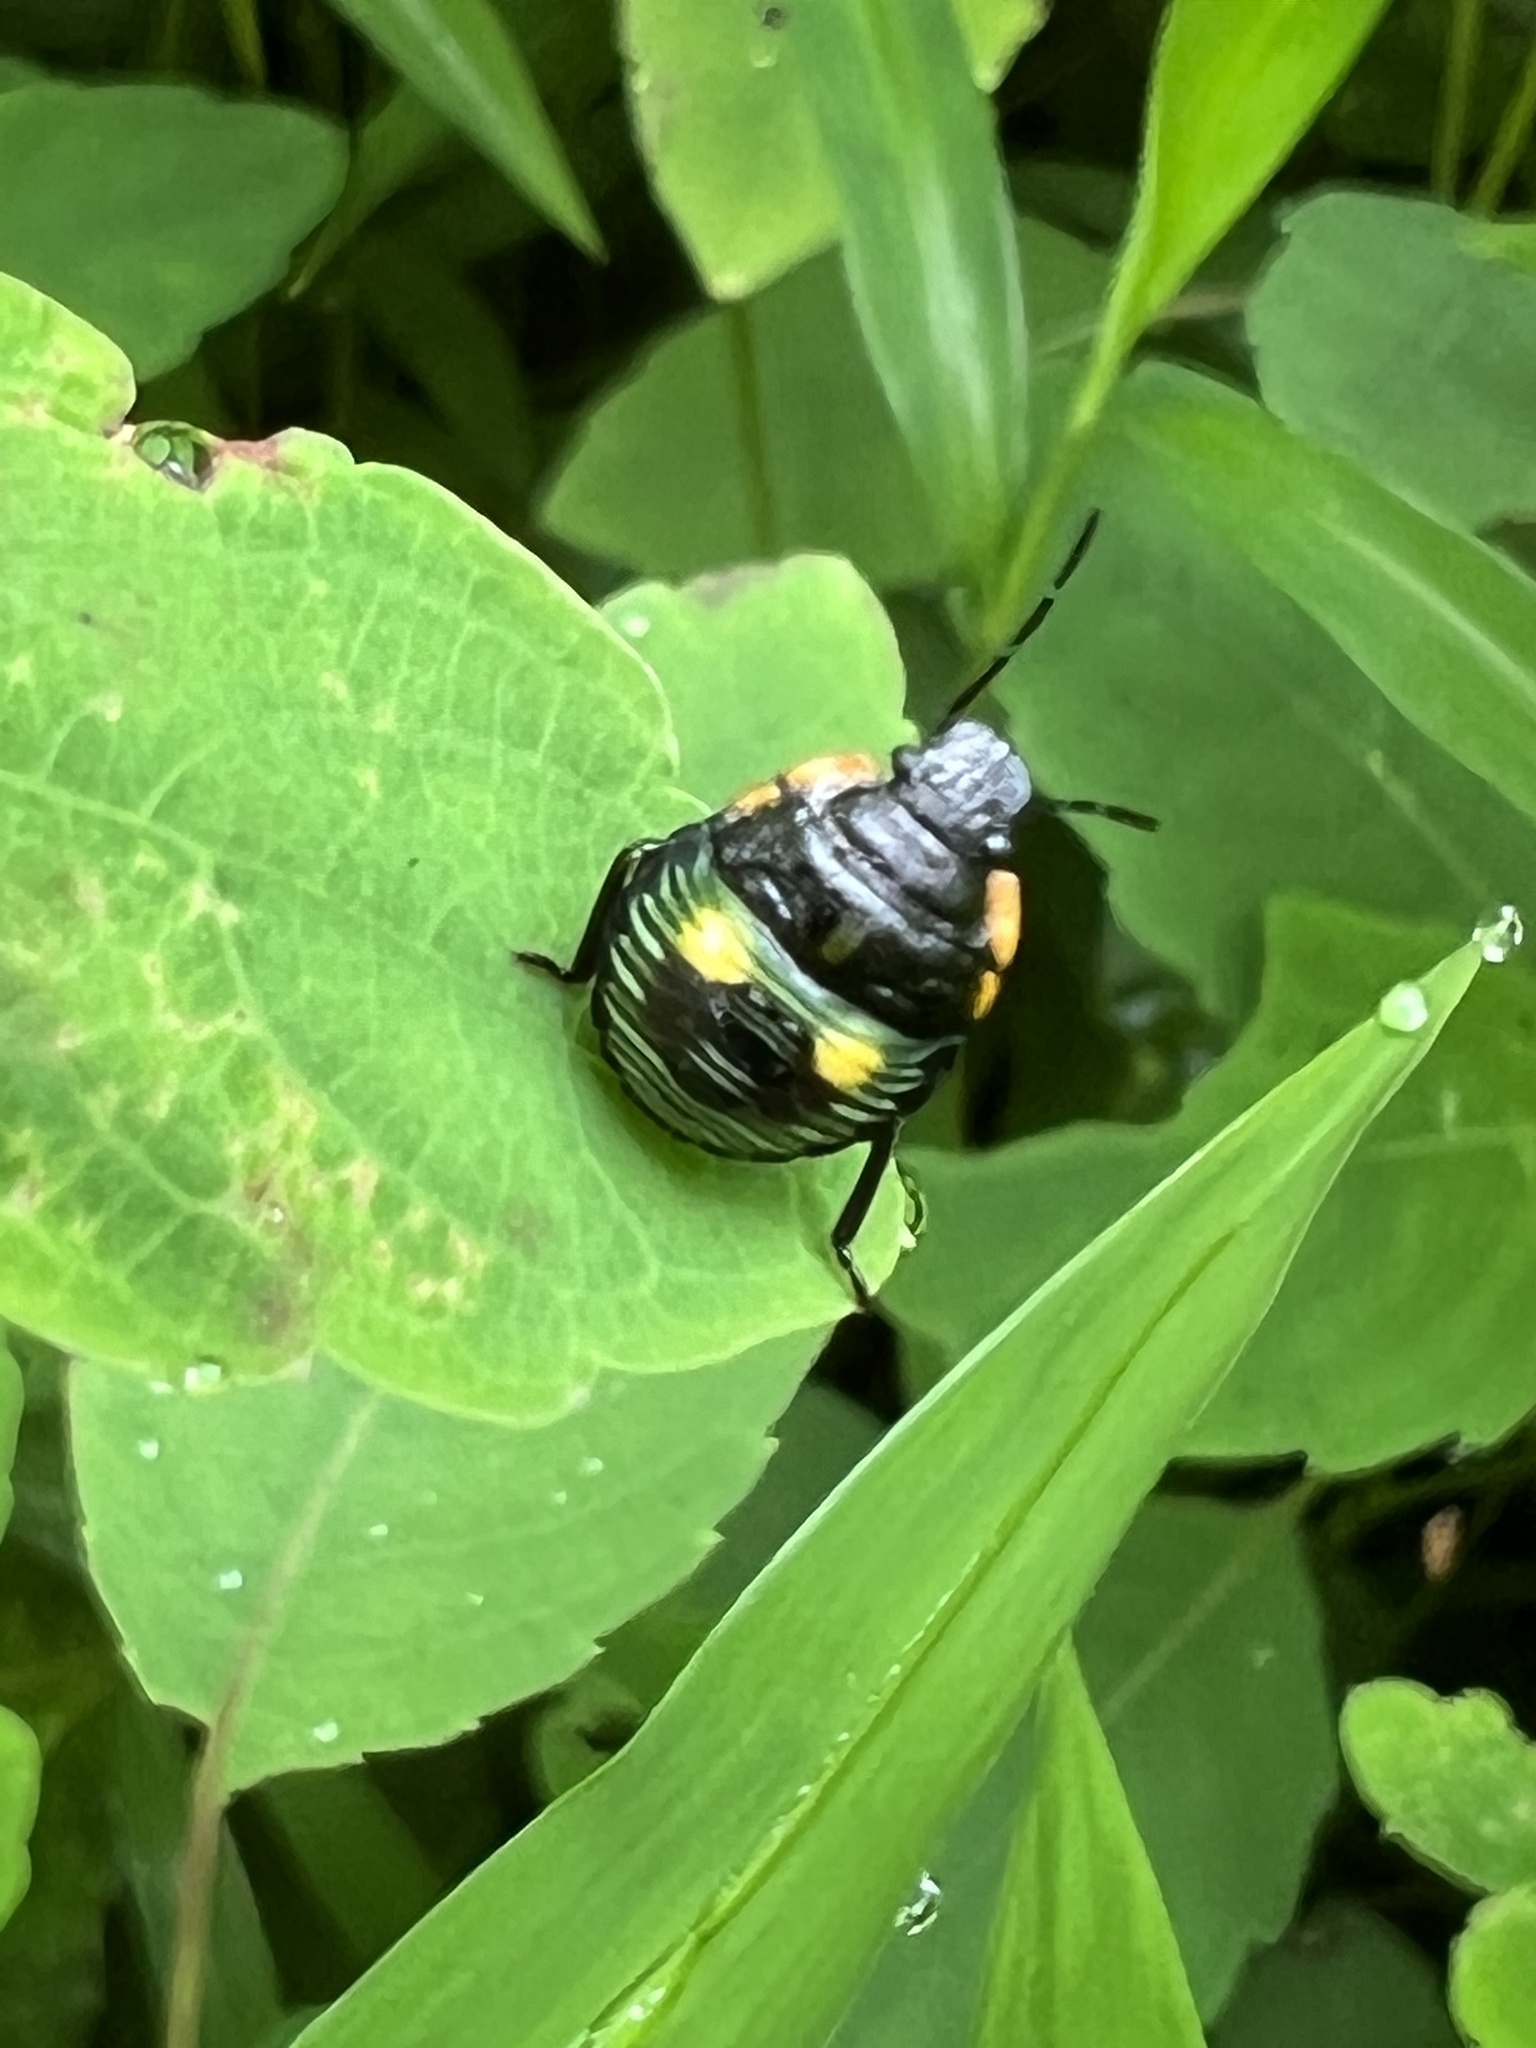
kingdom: Animalia
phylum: Arthropoda
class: Insecta
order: Hemiptera
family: Pentatomidae
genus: Chinavia
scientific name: Chinavia hilaris
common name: Green stink bug
